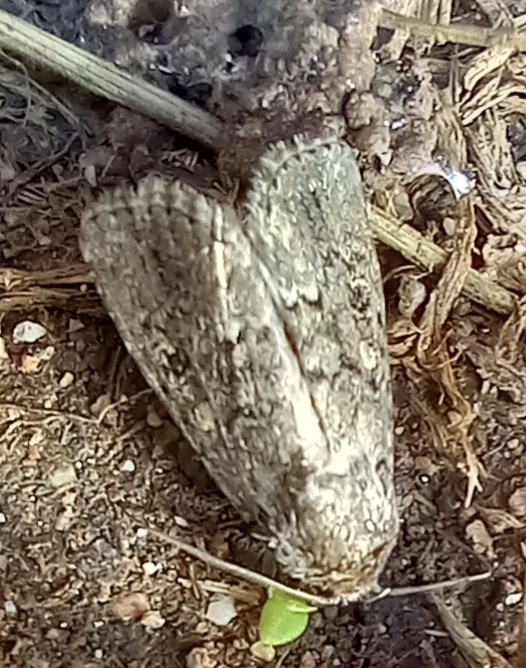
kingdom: Animalia
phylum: Arthropoda
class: Insecta
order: Lepidoptera
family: Noctuidae
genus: Spodoptera
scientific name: Spodoptera cilium
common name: Dark mottled willow
